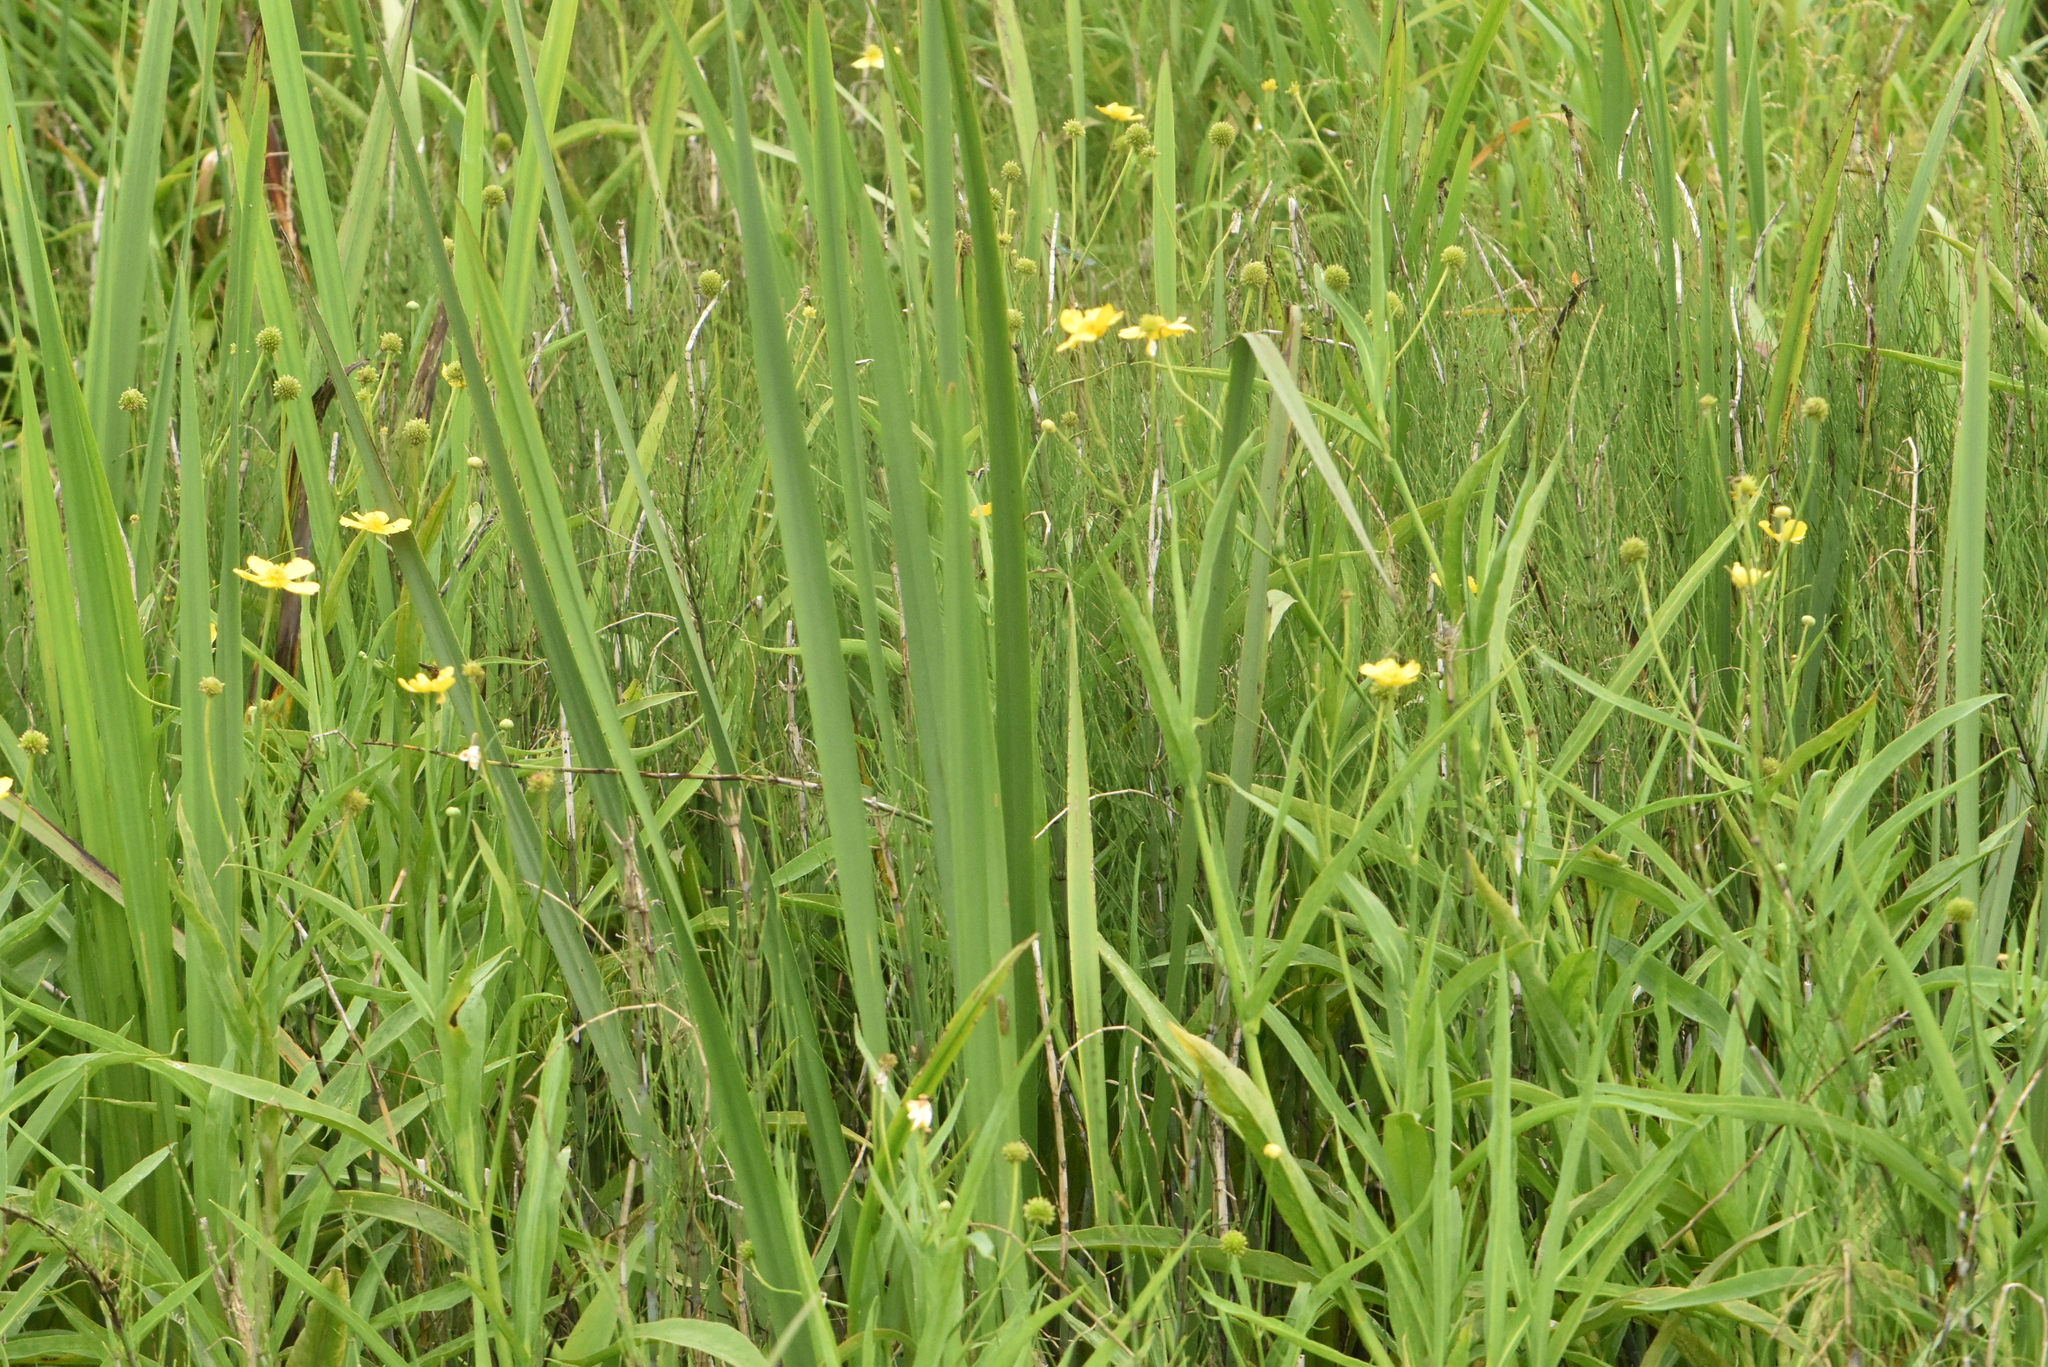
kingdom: Plantae
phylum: Tracheophyta
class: Magnoliopsida
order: Ranunculales
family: Ranunculaceae
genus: Ranunculus
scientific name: Ranunculus lingua
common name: Greater spearwort
